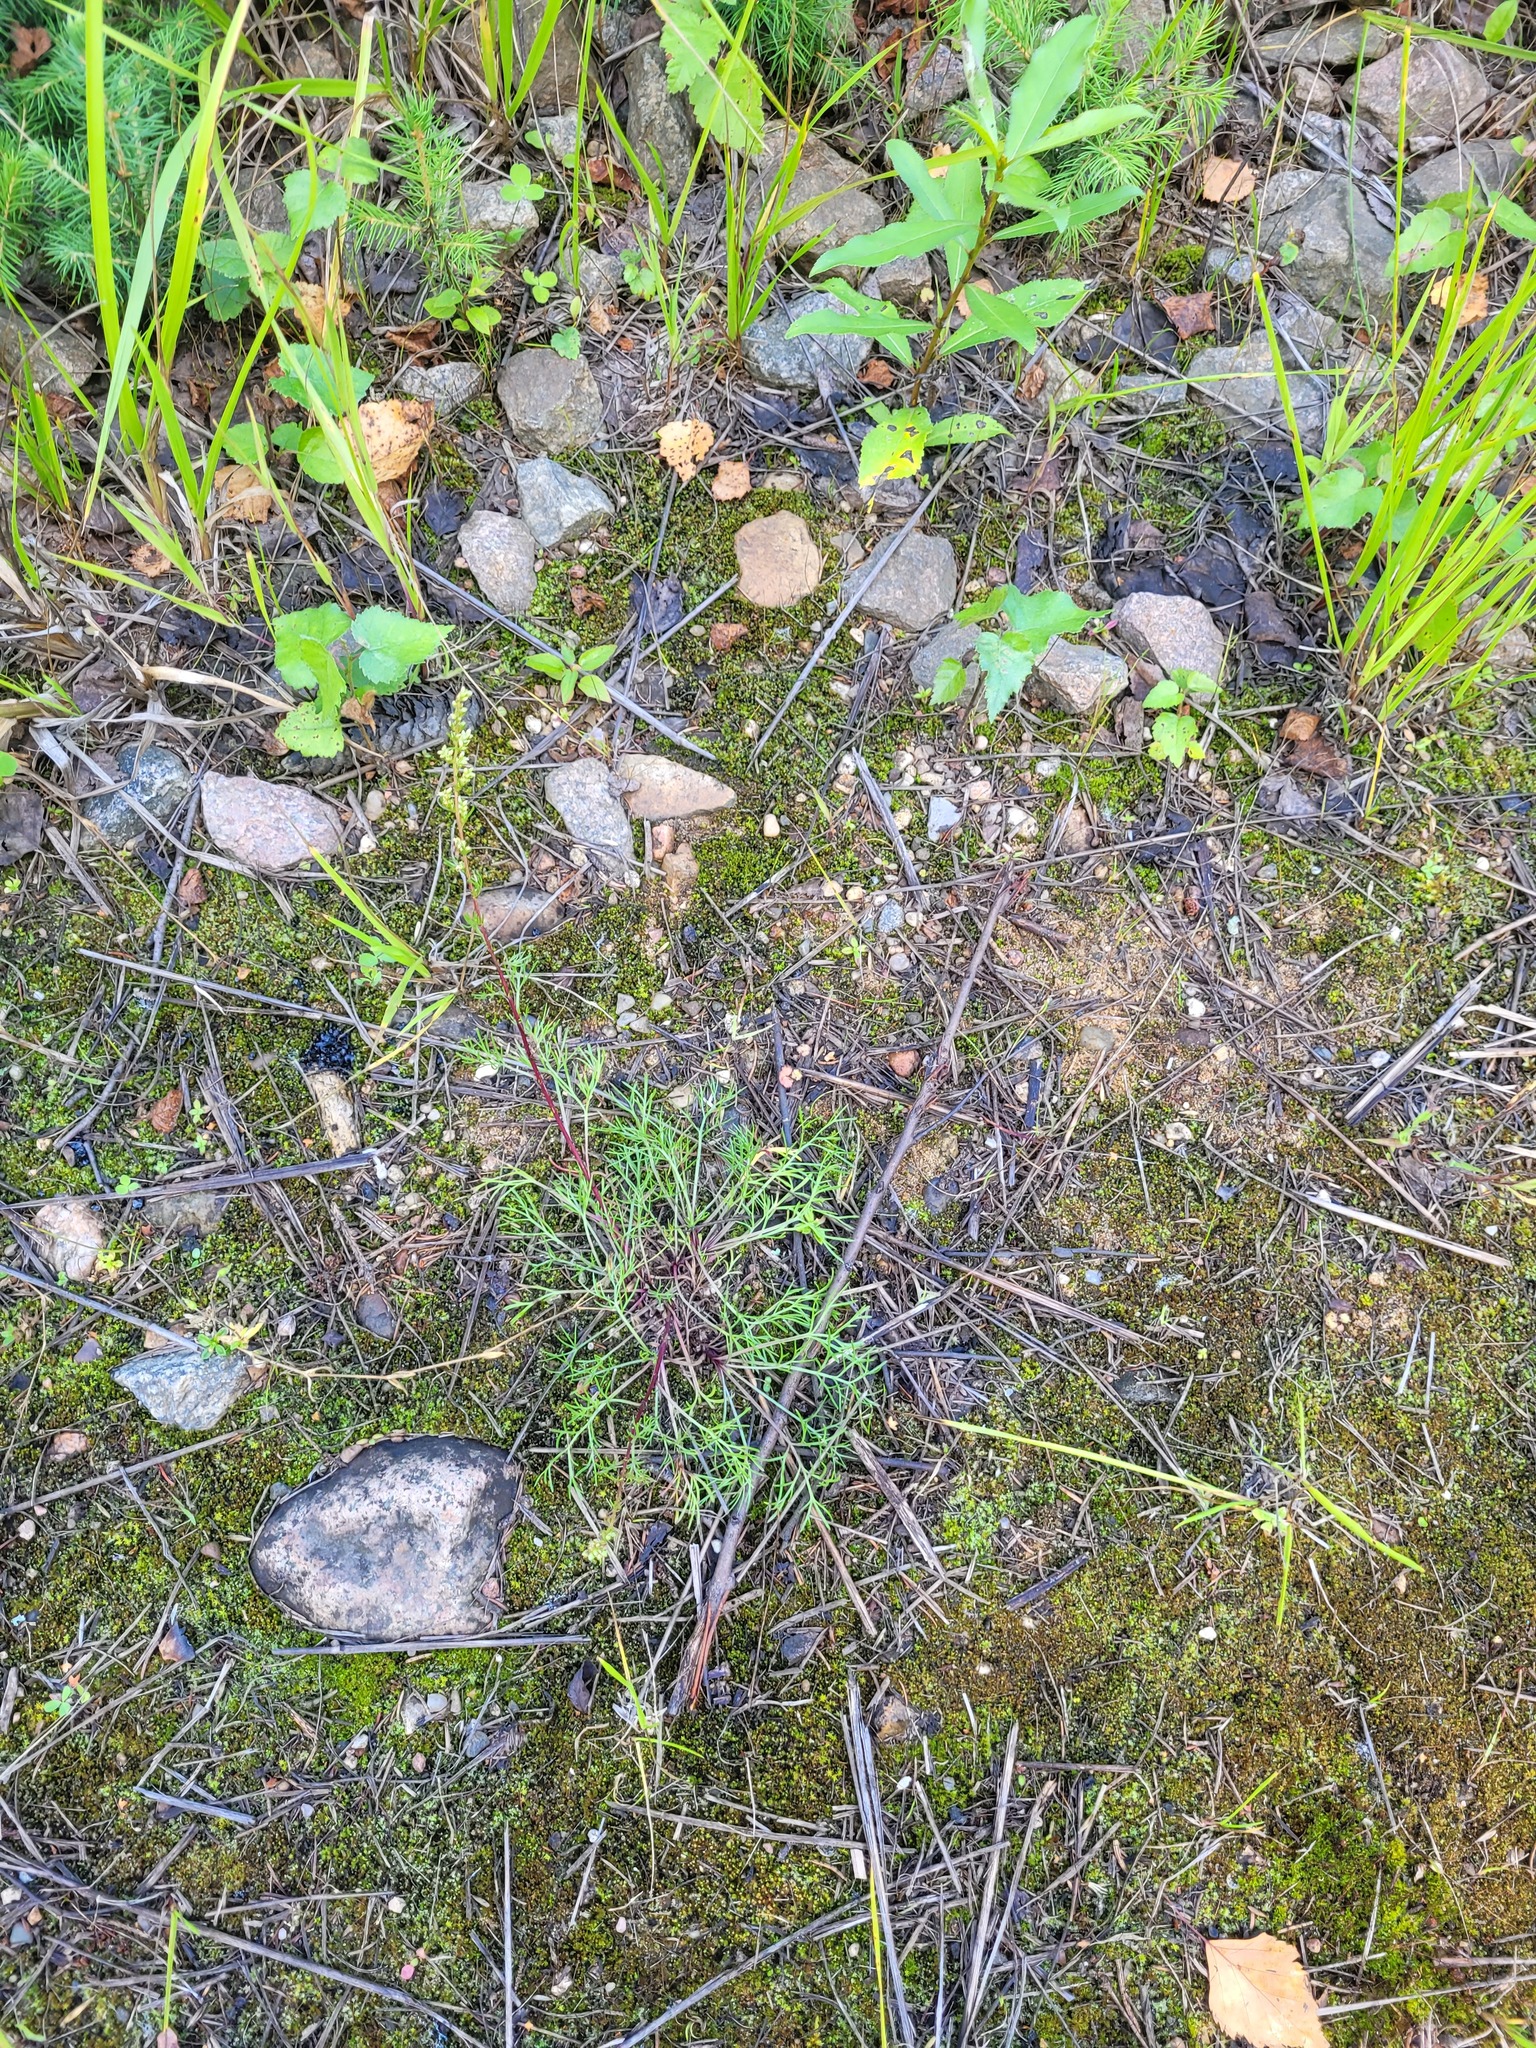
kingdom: Plantae
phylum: Tracheophyta
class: Magnoliopsida
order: Asterales
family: Asteraceae
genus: Artemisia
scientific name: Artemisia campestris
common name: Field wormwood
